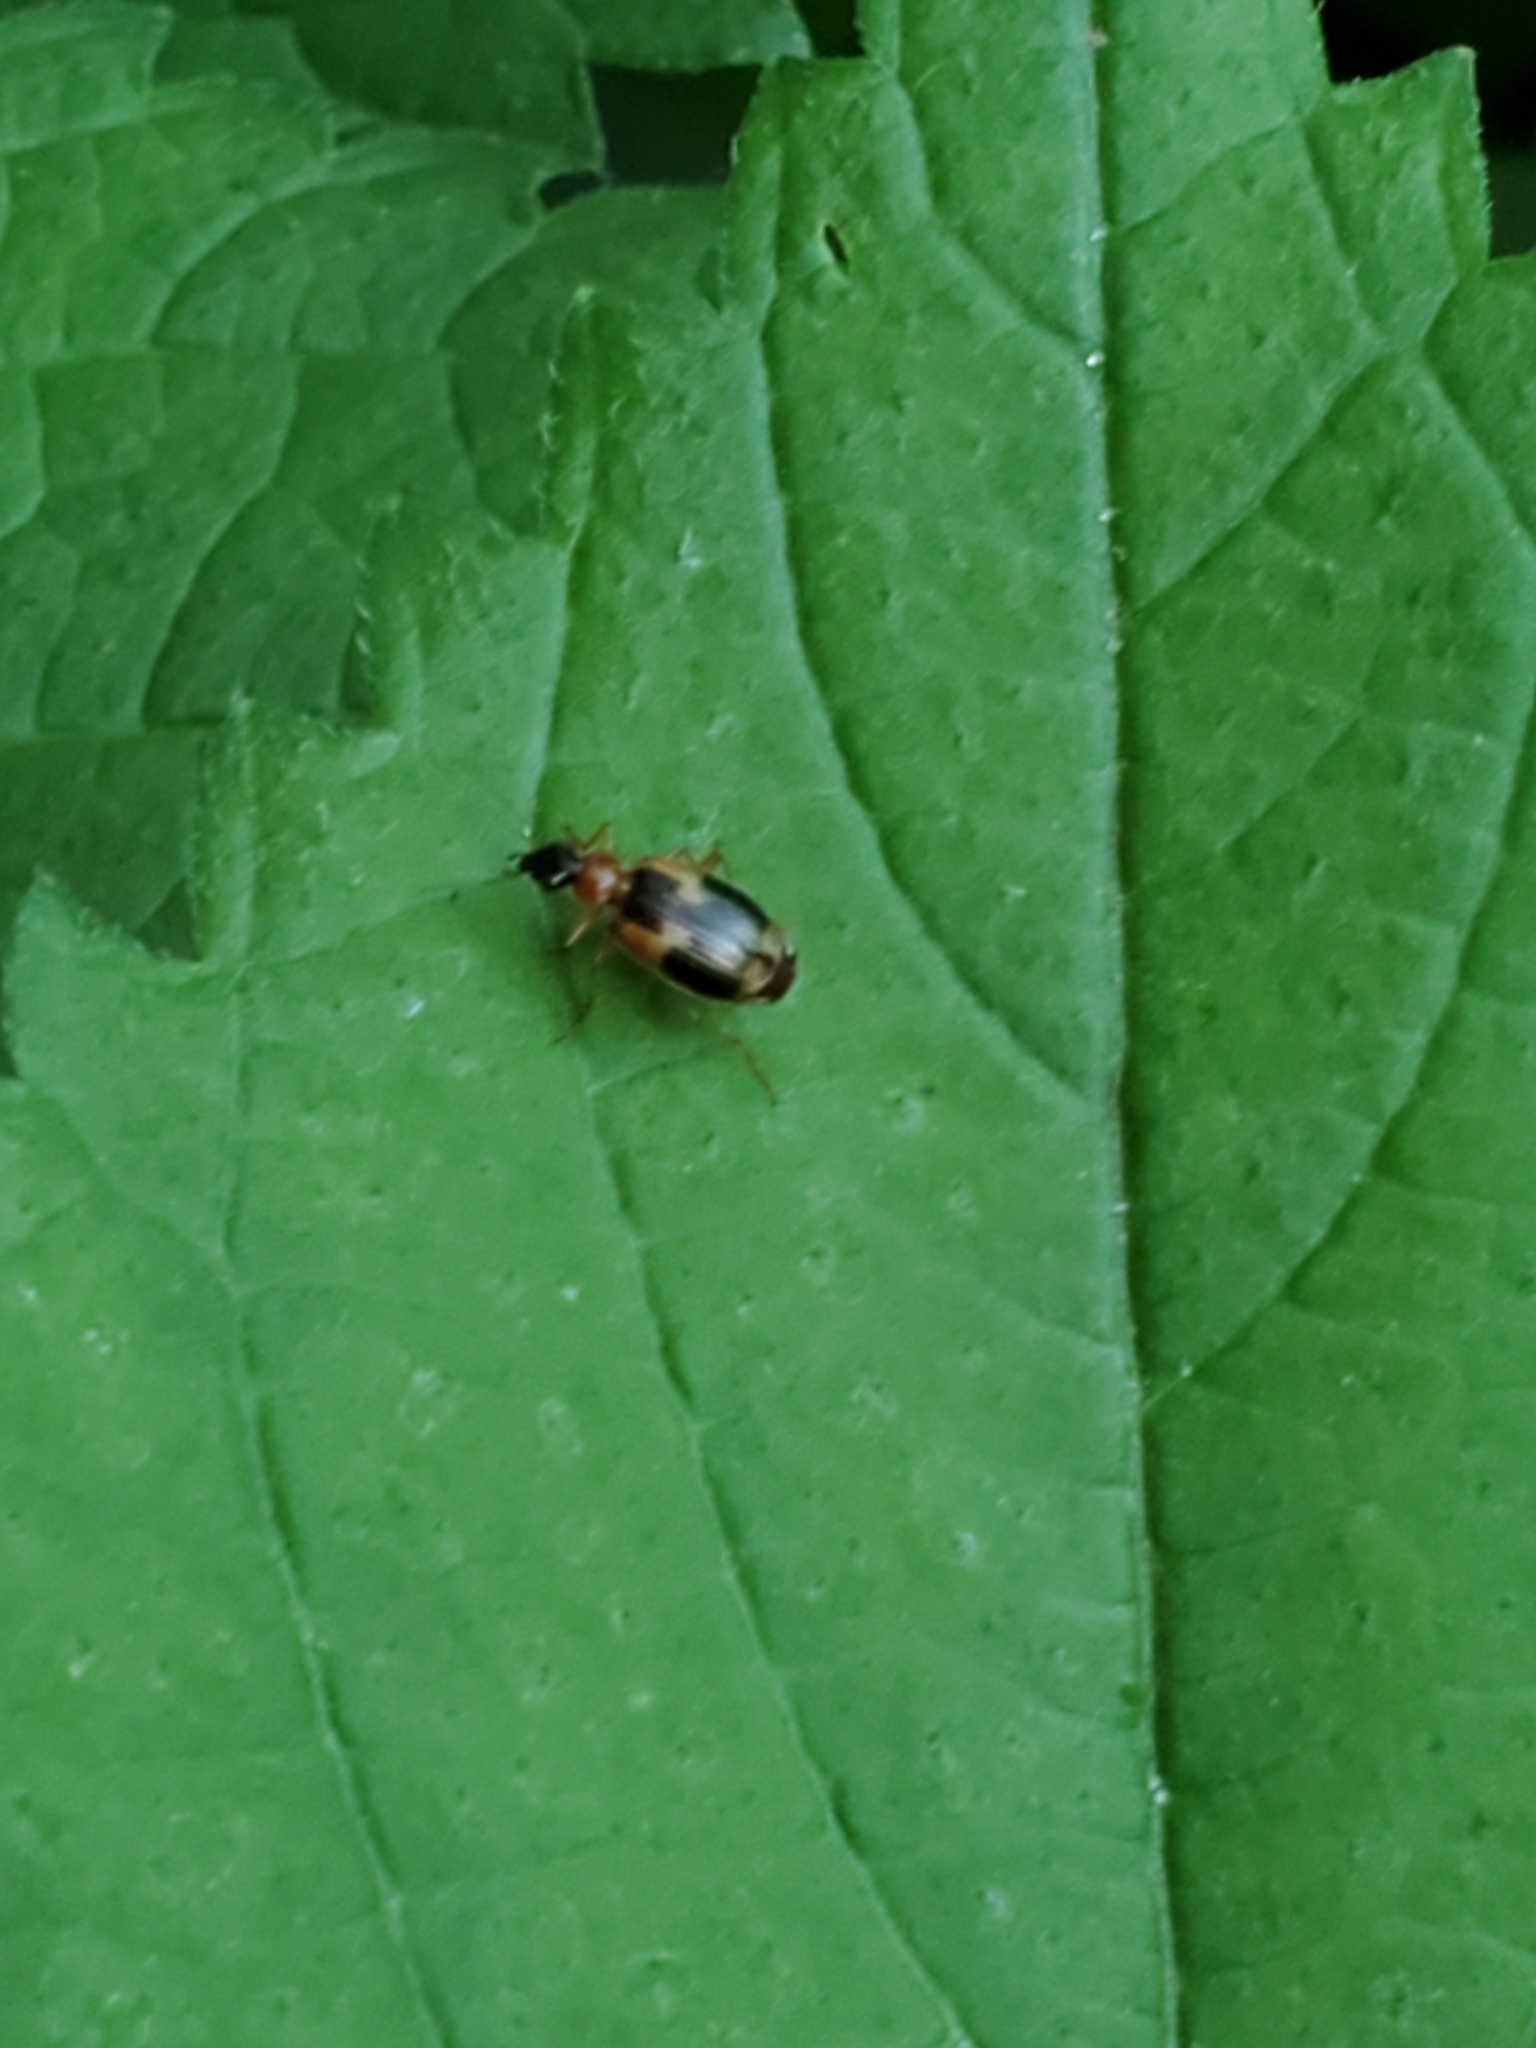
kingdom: Animalia
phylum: Arthropoda
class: Insecta
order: Coleoptera
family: Carabidae
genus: Lebia
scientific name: Lebia analis
